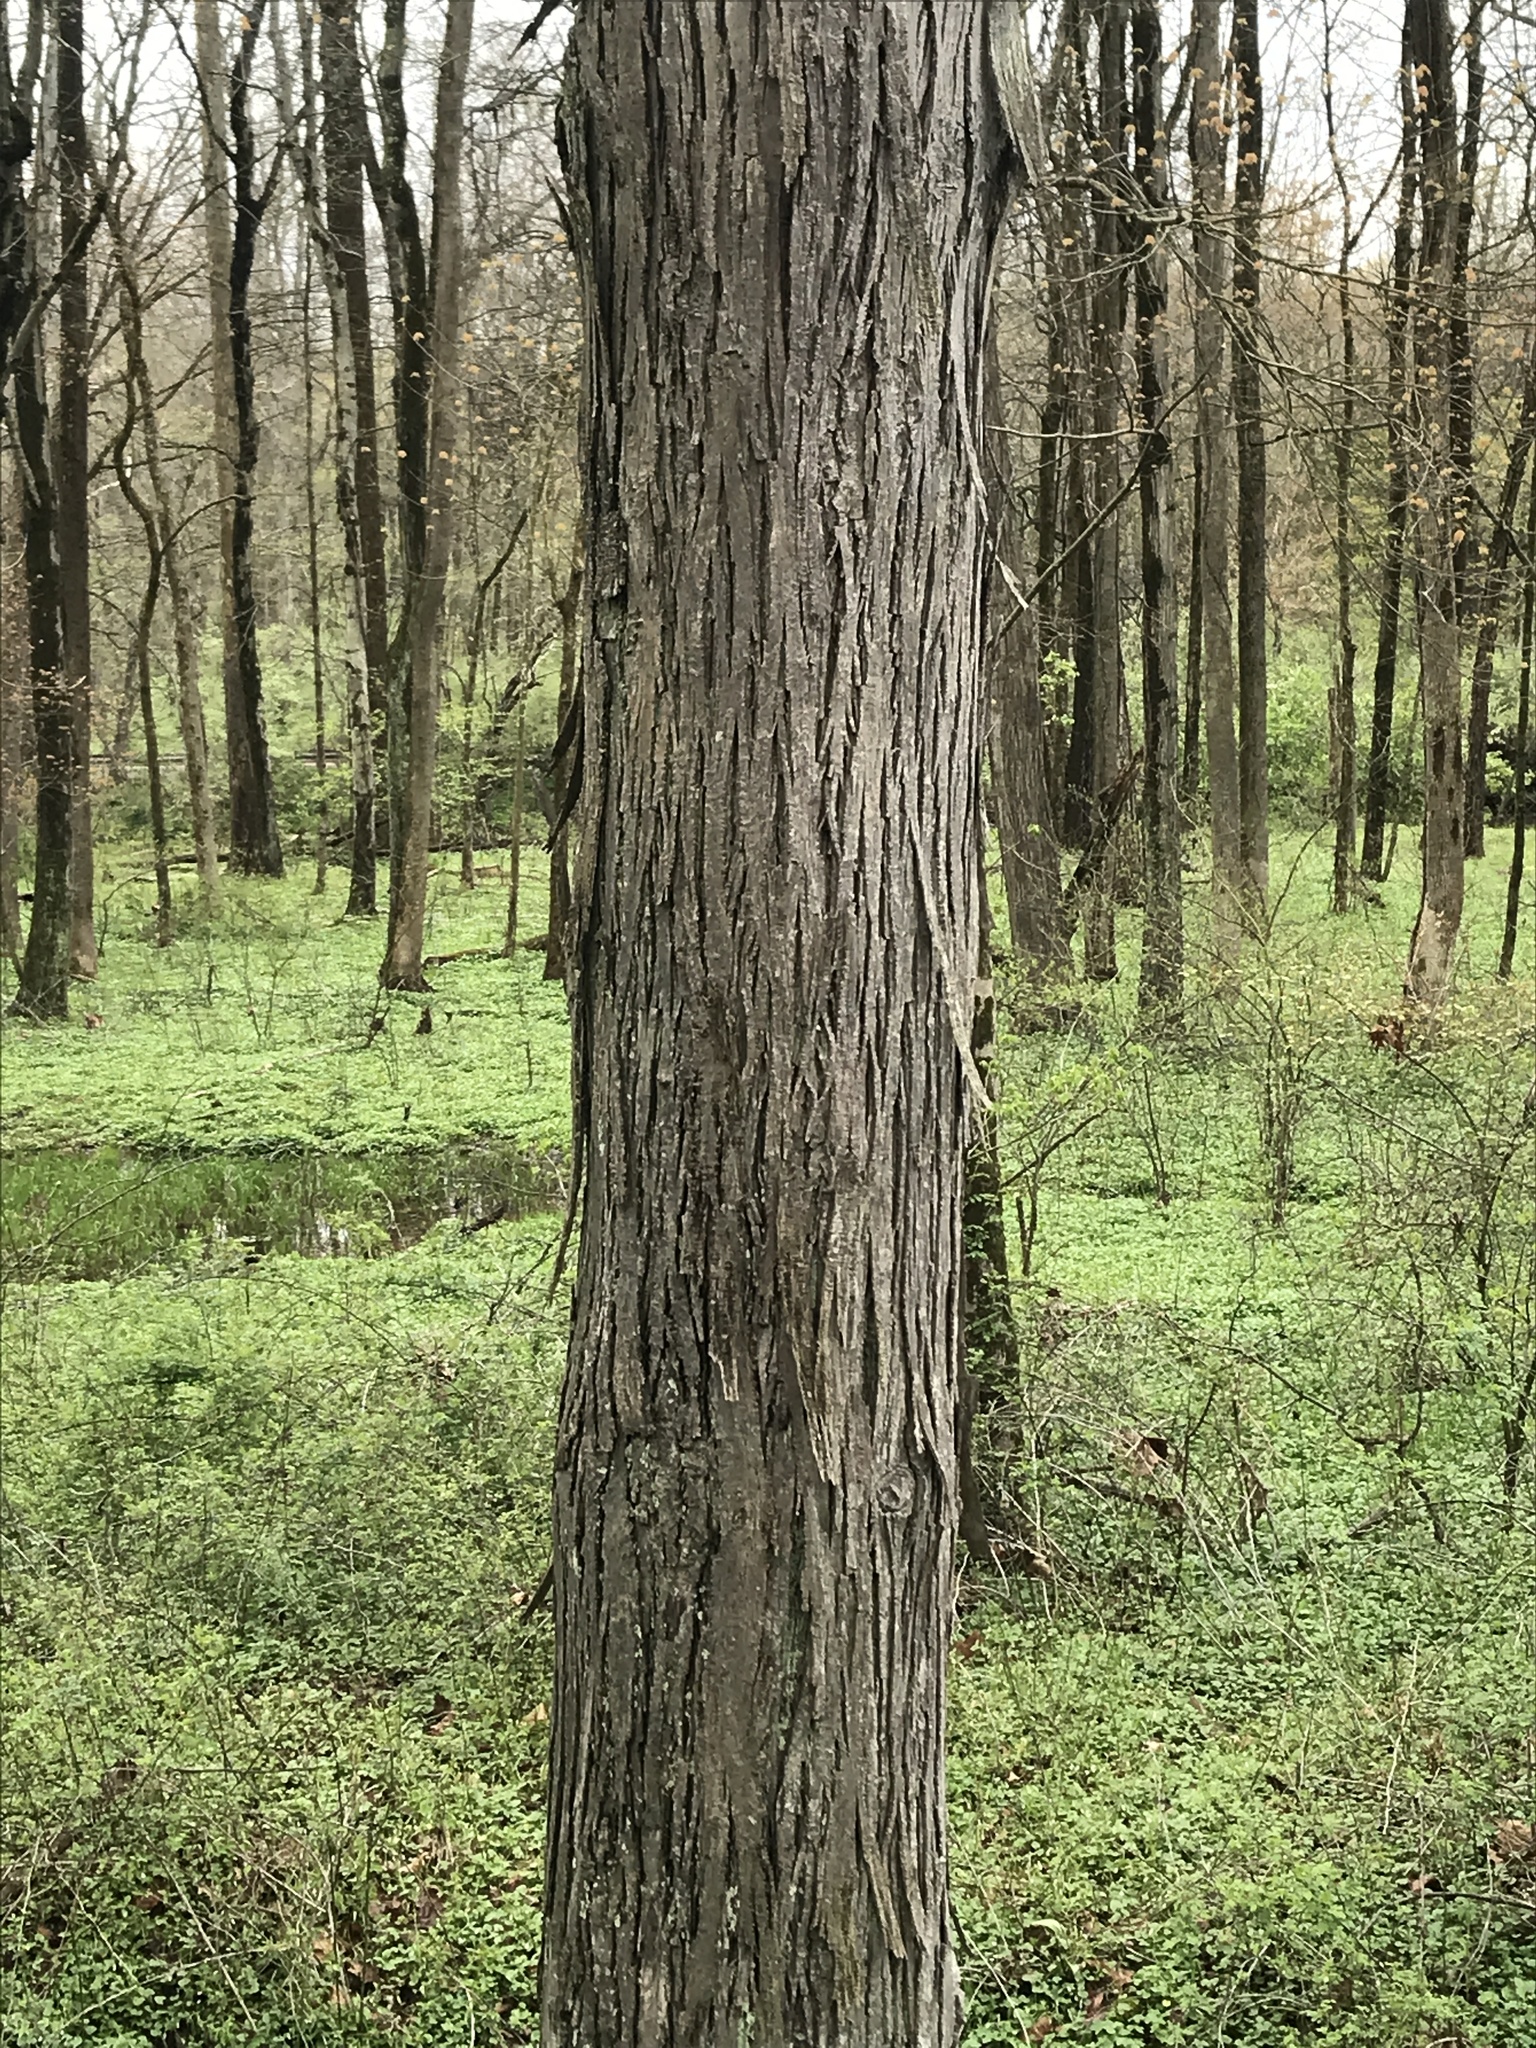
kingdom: Plantae
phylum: Tracheophyta
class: Magnoliopsida
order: Fagales
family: Juglandaceae
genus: Carya
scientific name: Carya ovata
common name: Shagbark hickory
